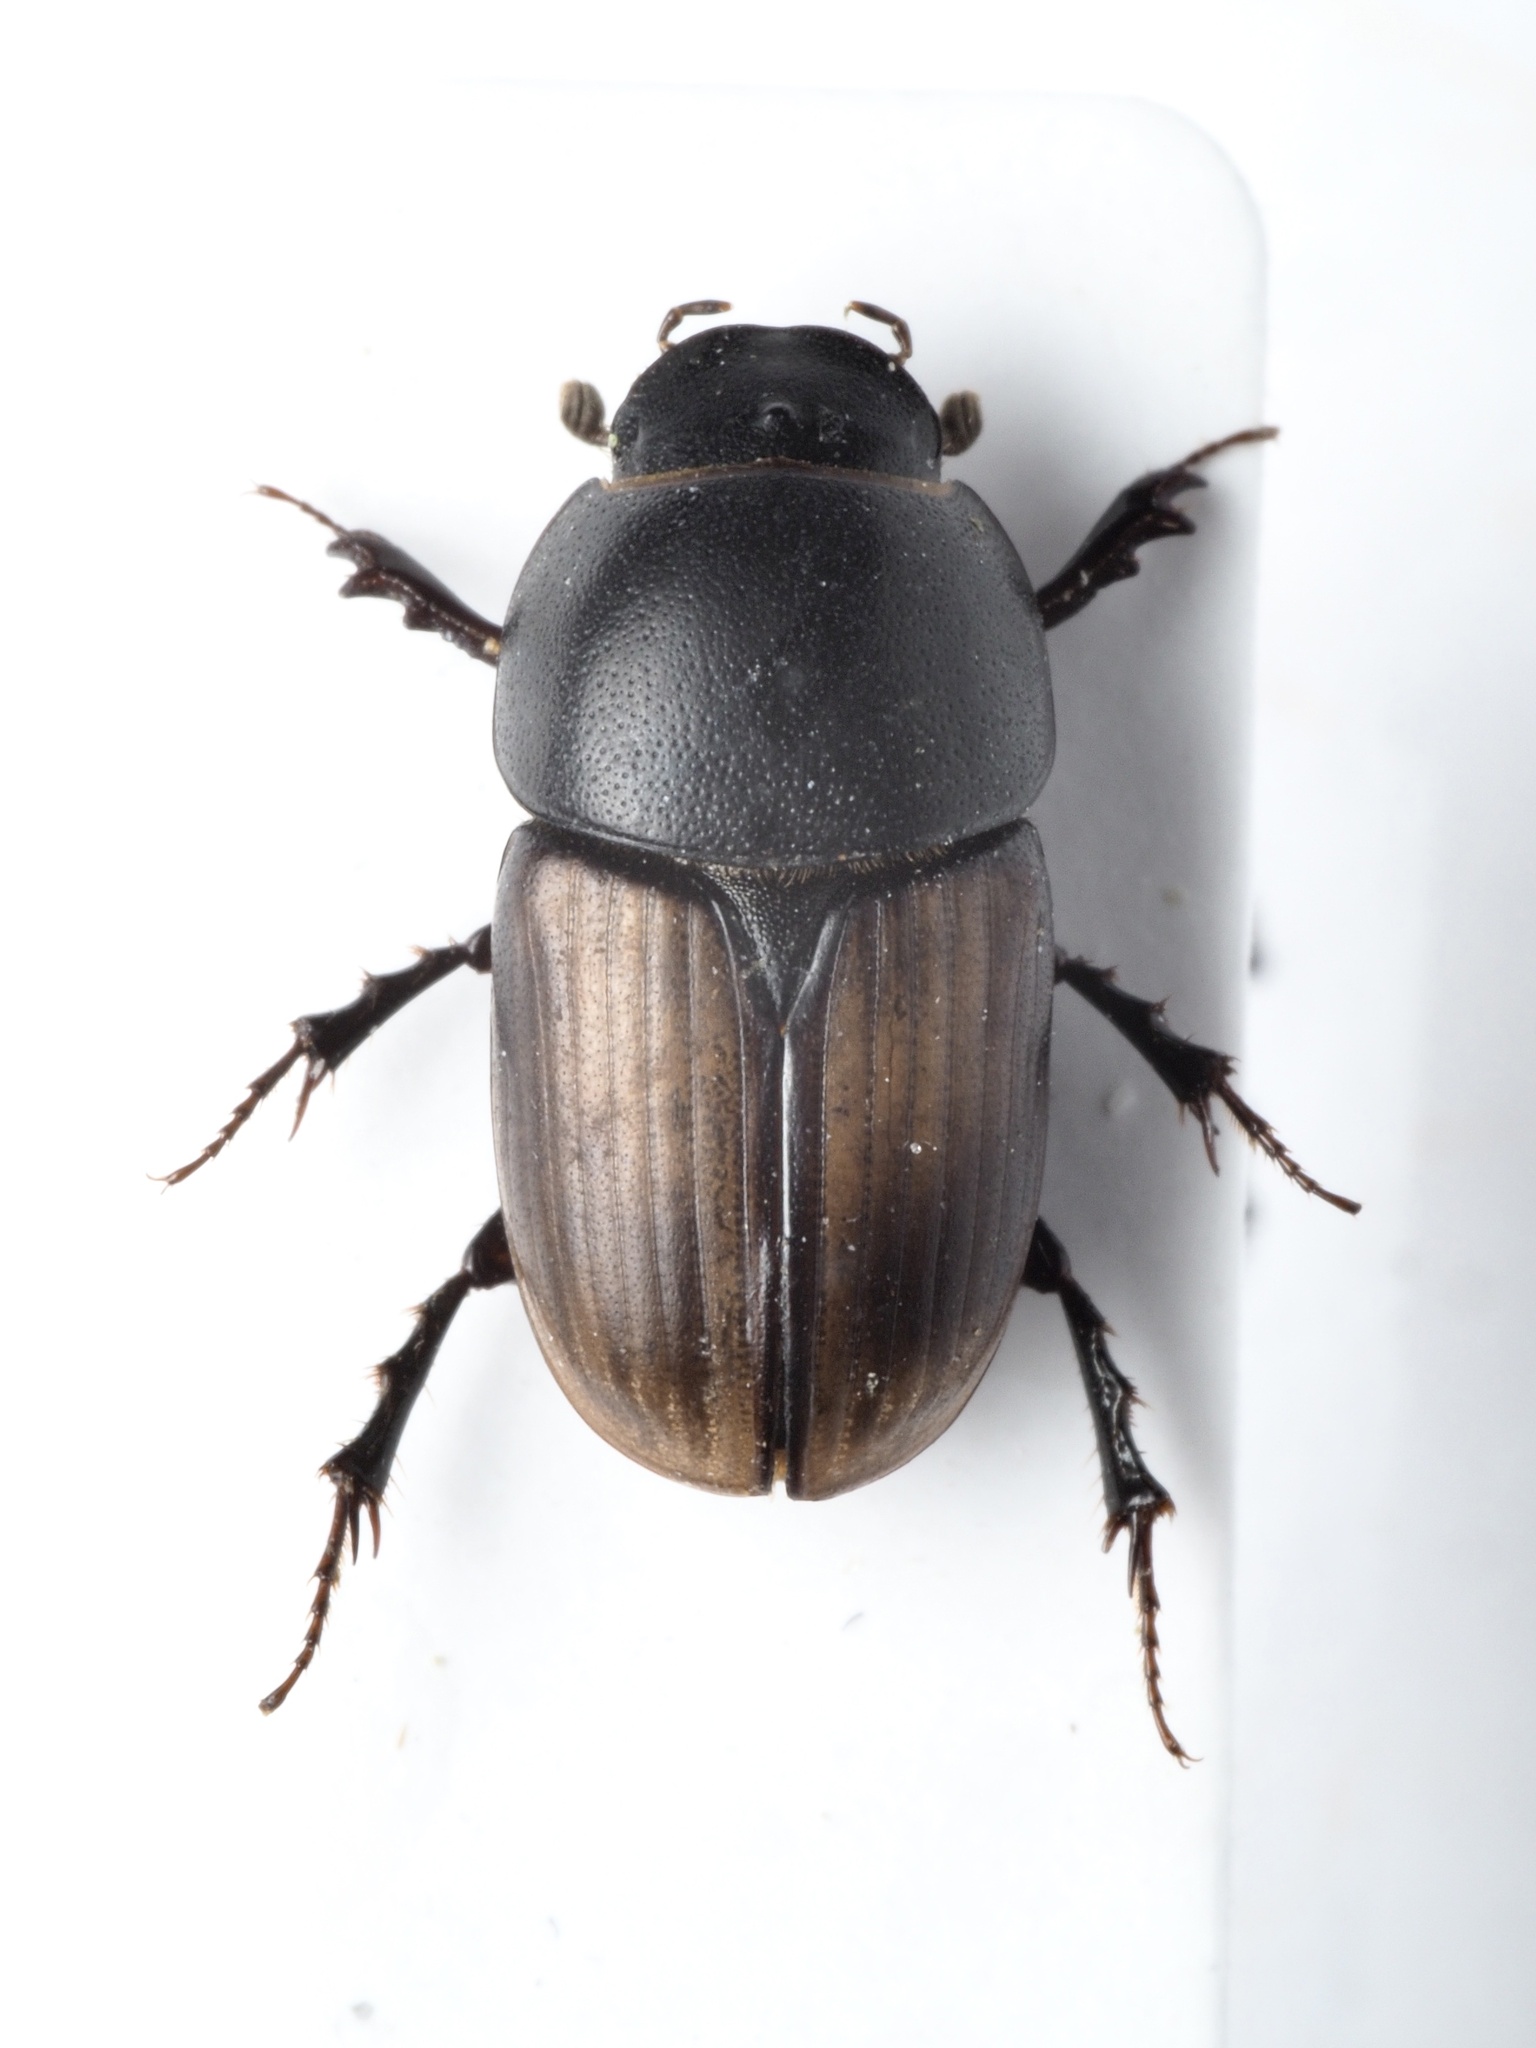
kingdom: Animalia
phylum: Arthropoda
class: Insecta
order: Coleoptera
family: Scarabaeidae
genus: Colobopterus
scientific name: Colobopterus erraticus
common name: Erratic small dung beetle
